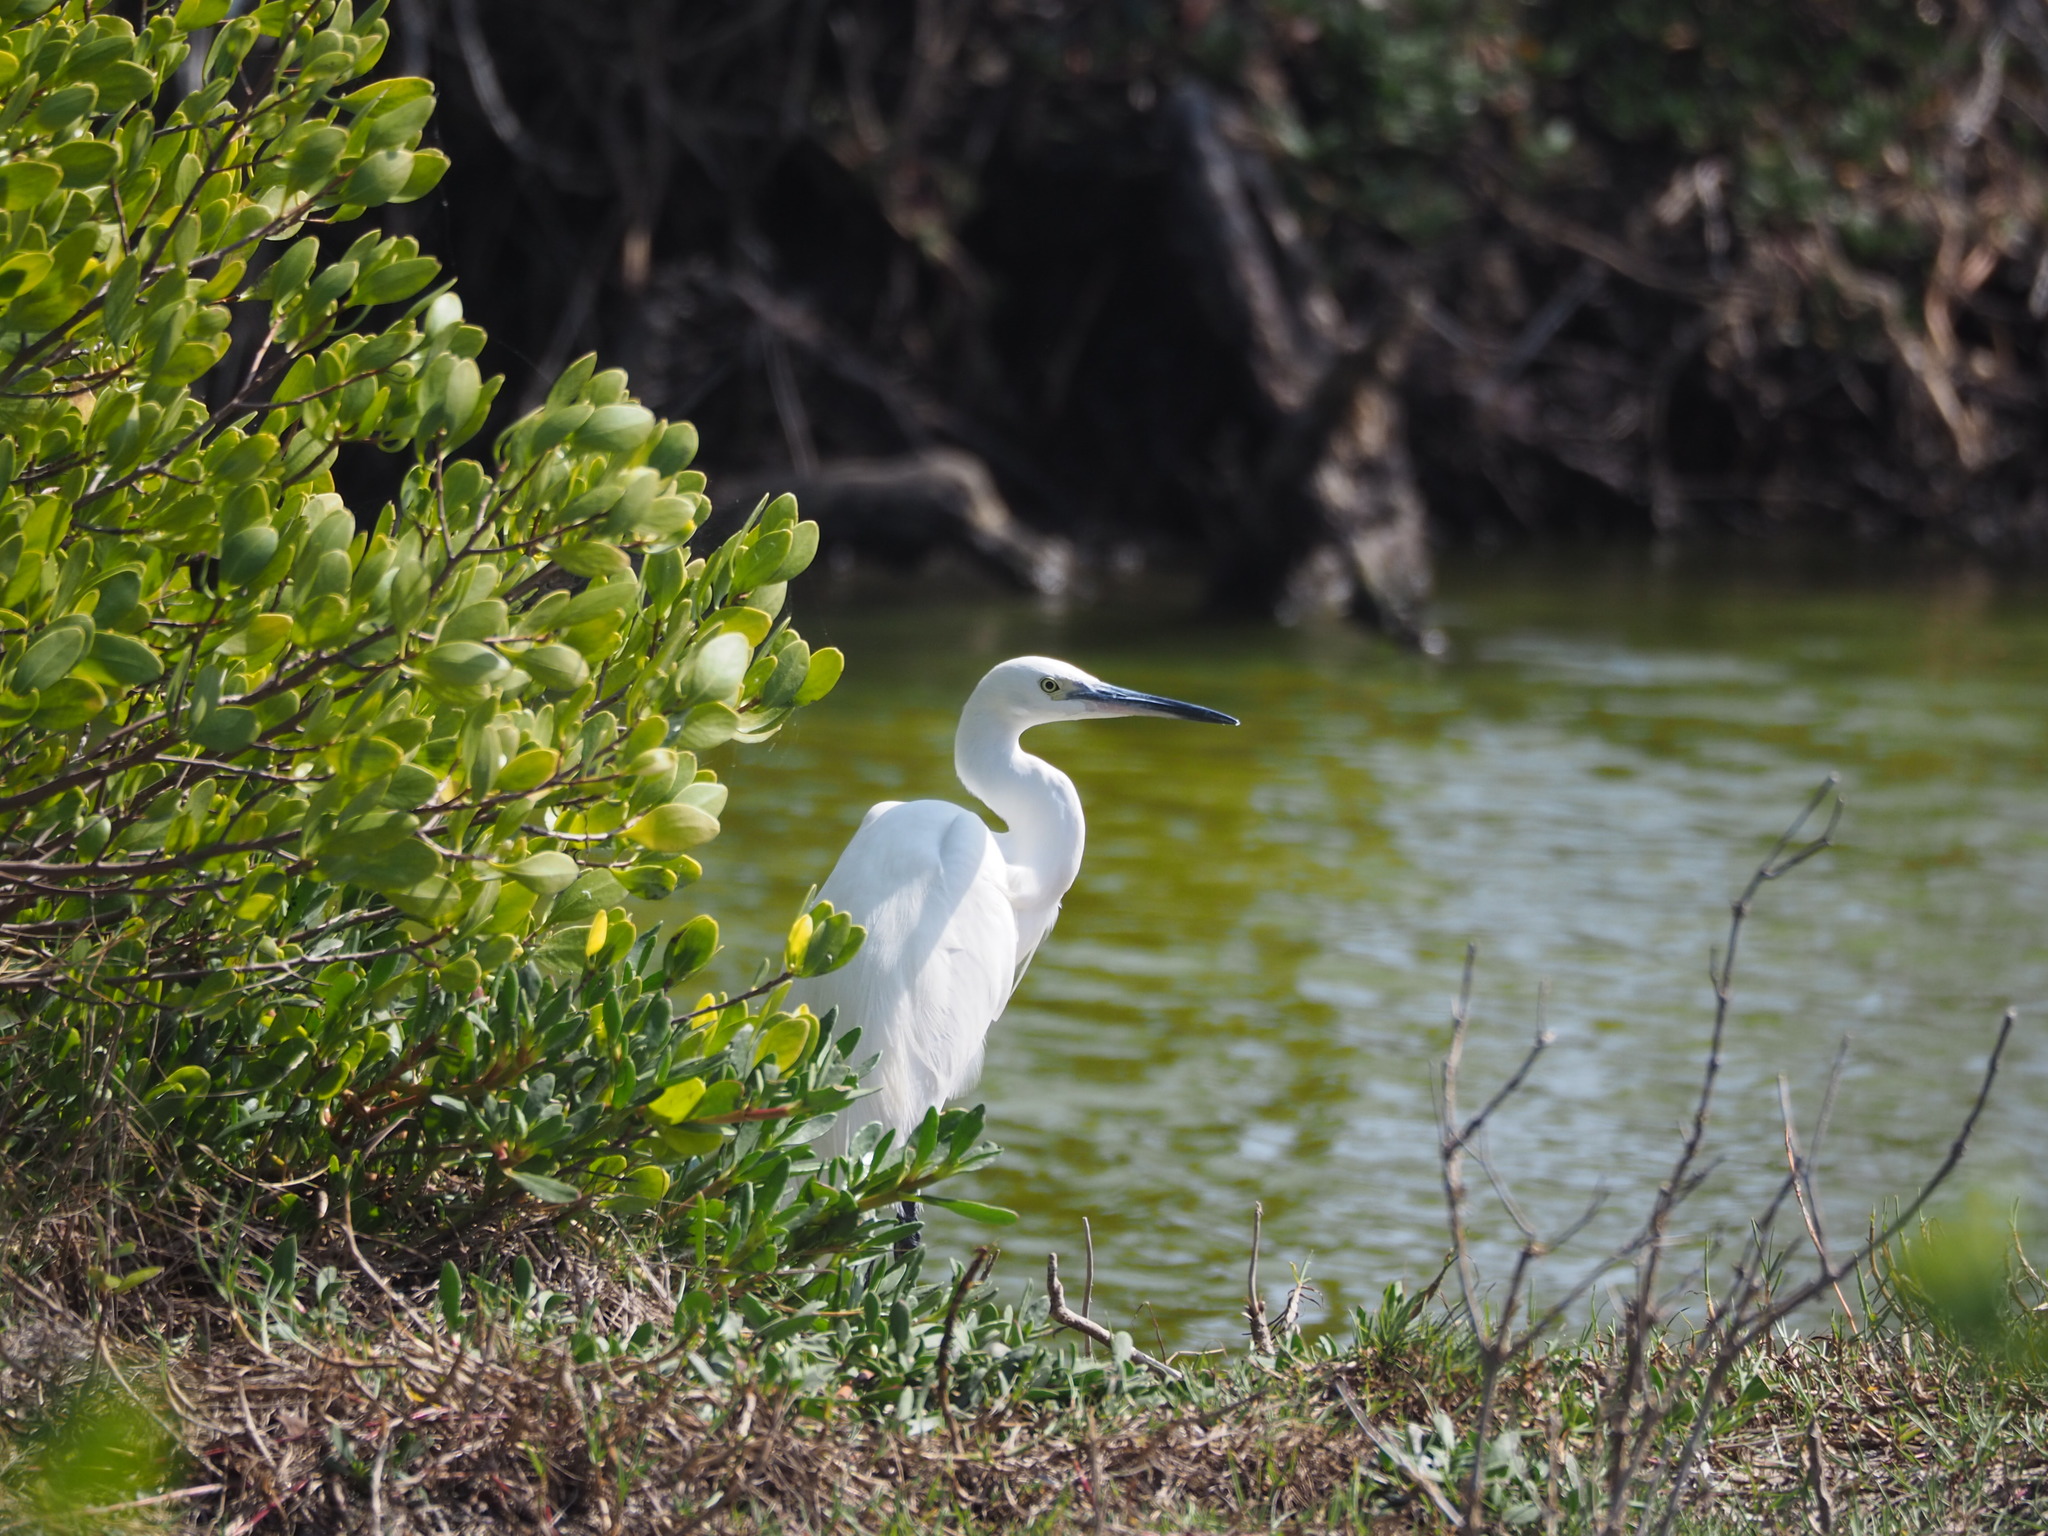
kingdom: Animalia
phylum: Chordata
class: Aves
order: Pelecaniformes
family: Ardeidae
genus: Egretta
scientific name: Egretta garzetta
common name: Little egret
